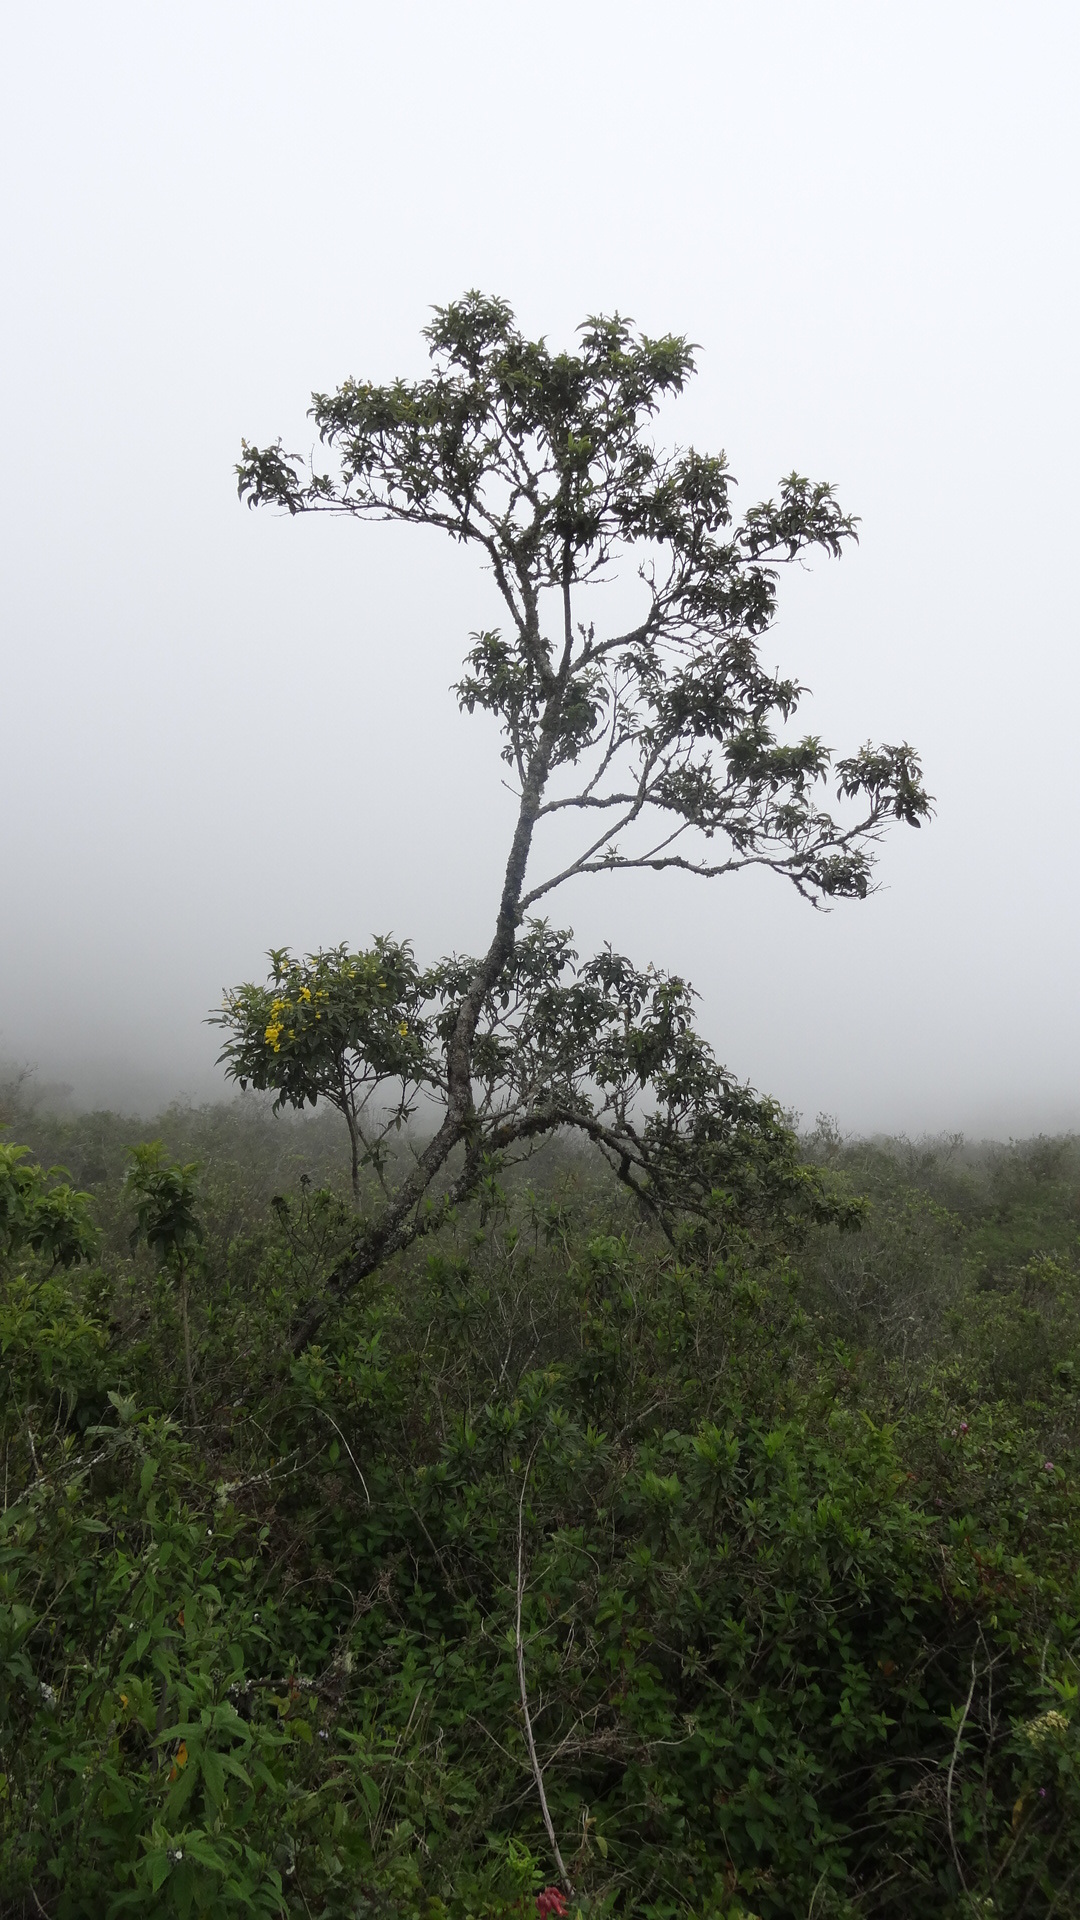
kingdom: Plantae
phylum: Tracheophyta
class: Magnoliopsida
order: Lamiales
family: Bignoniaceae
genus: Tecoma
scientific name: Tecoma stans
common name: Yellow trumpetbush
